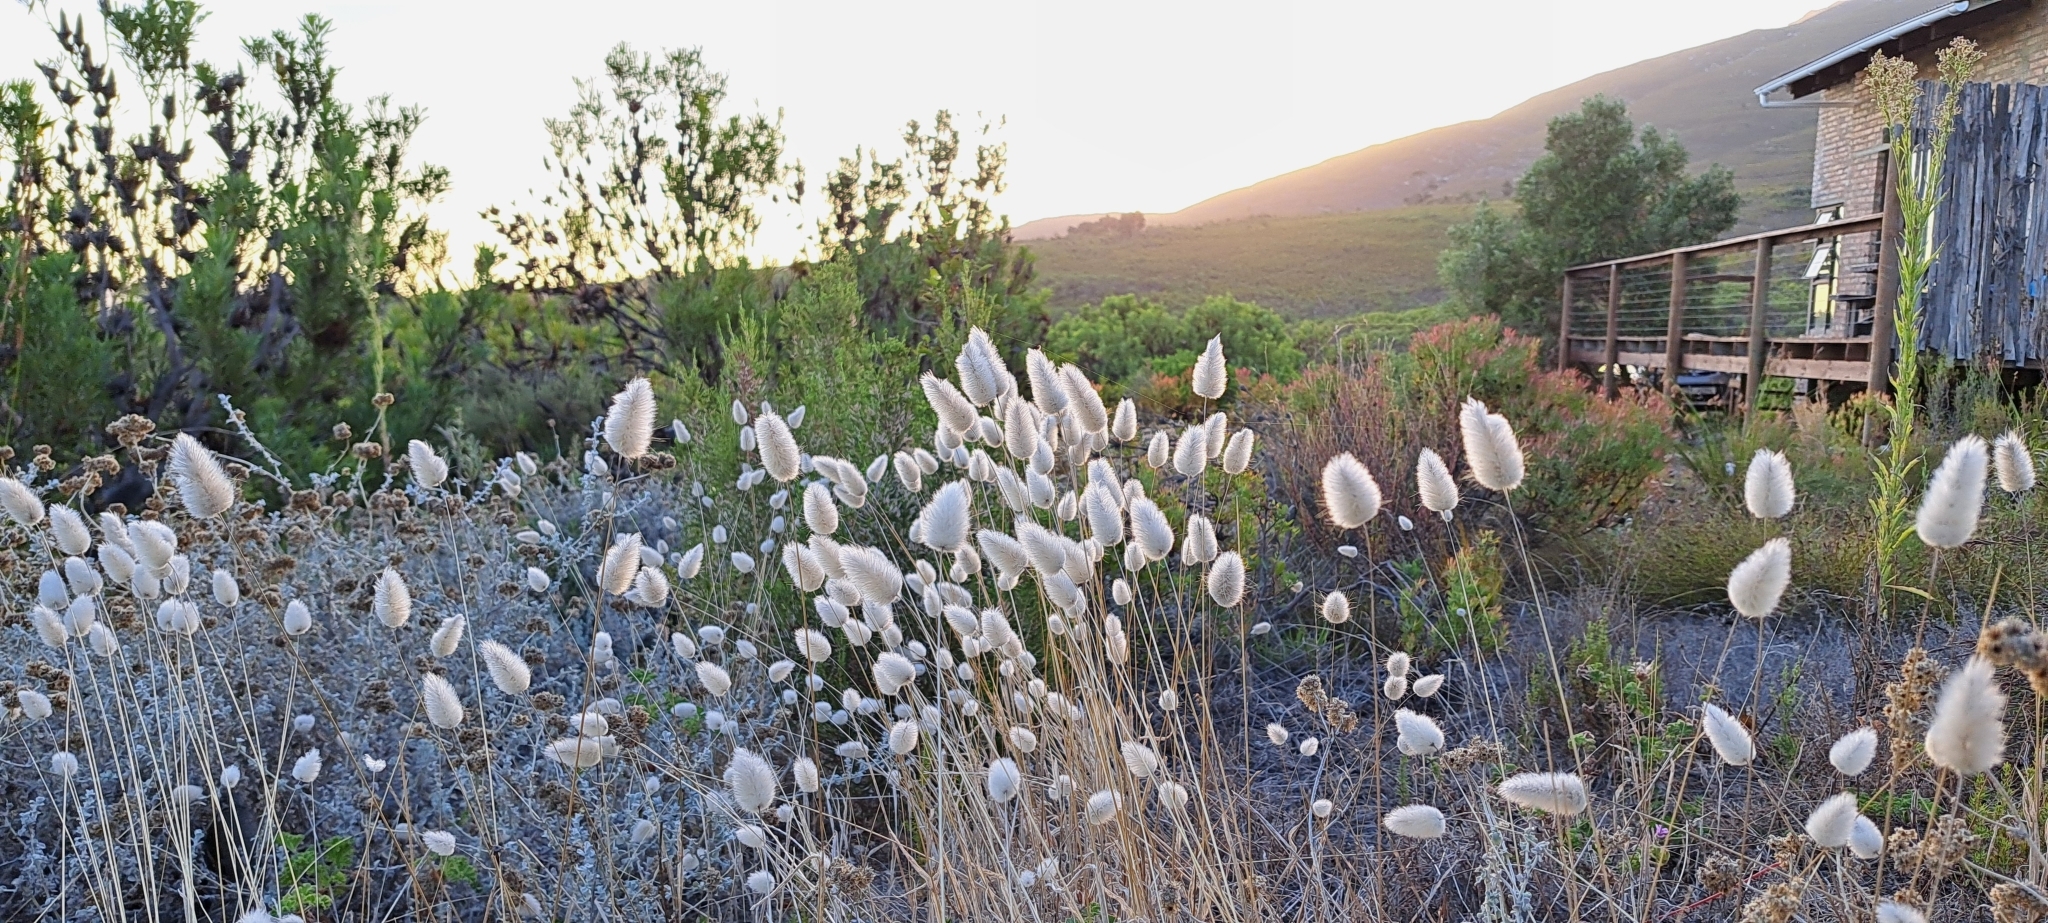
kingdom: Plantae
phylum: Tracheophyta
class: Liliopsida
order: Poales
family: Poaceae
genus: Lagurus
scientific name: Lagurus ovatus
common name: Hare's-tail
